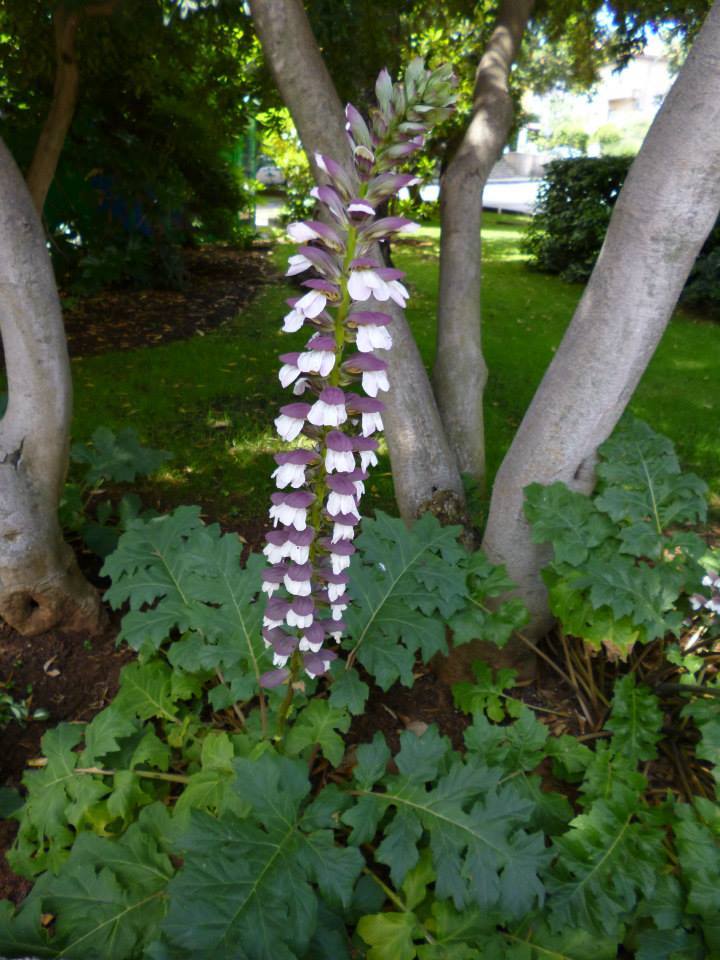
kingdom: Plantae
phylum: Tracheophyta
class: Magnoliopsida
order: Lamiales
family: Acanthaceae
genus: Acanthus
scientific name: Acanthus mollis
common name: Bear's-breech
